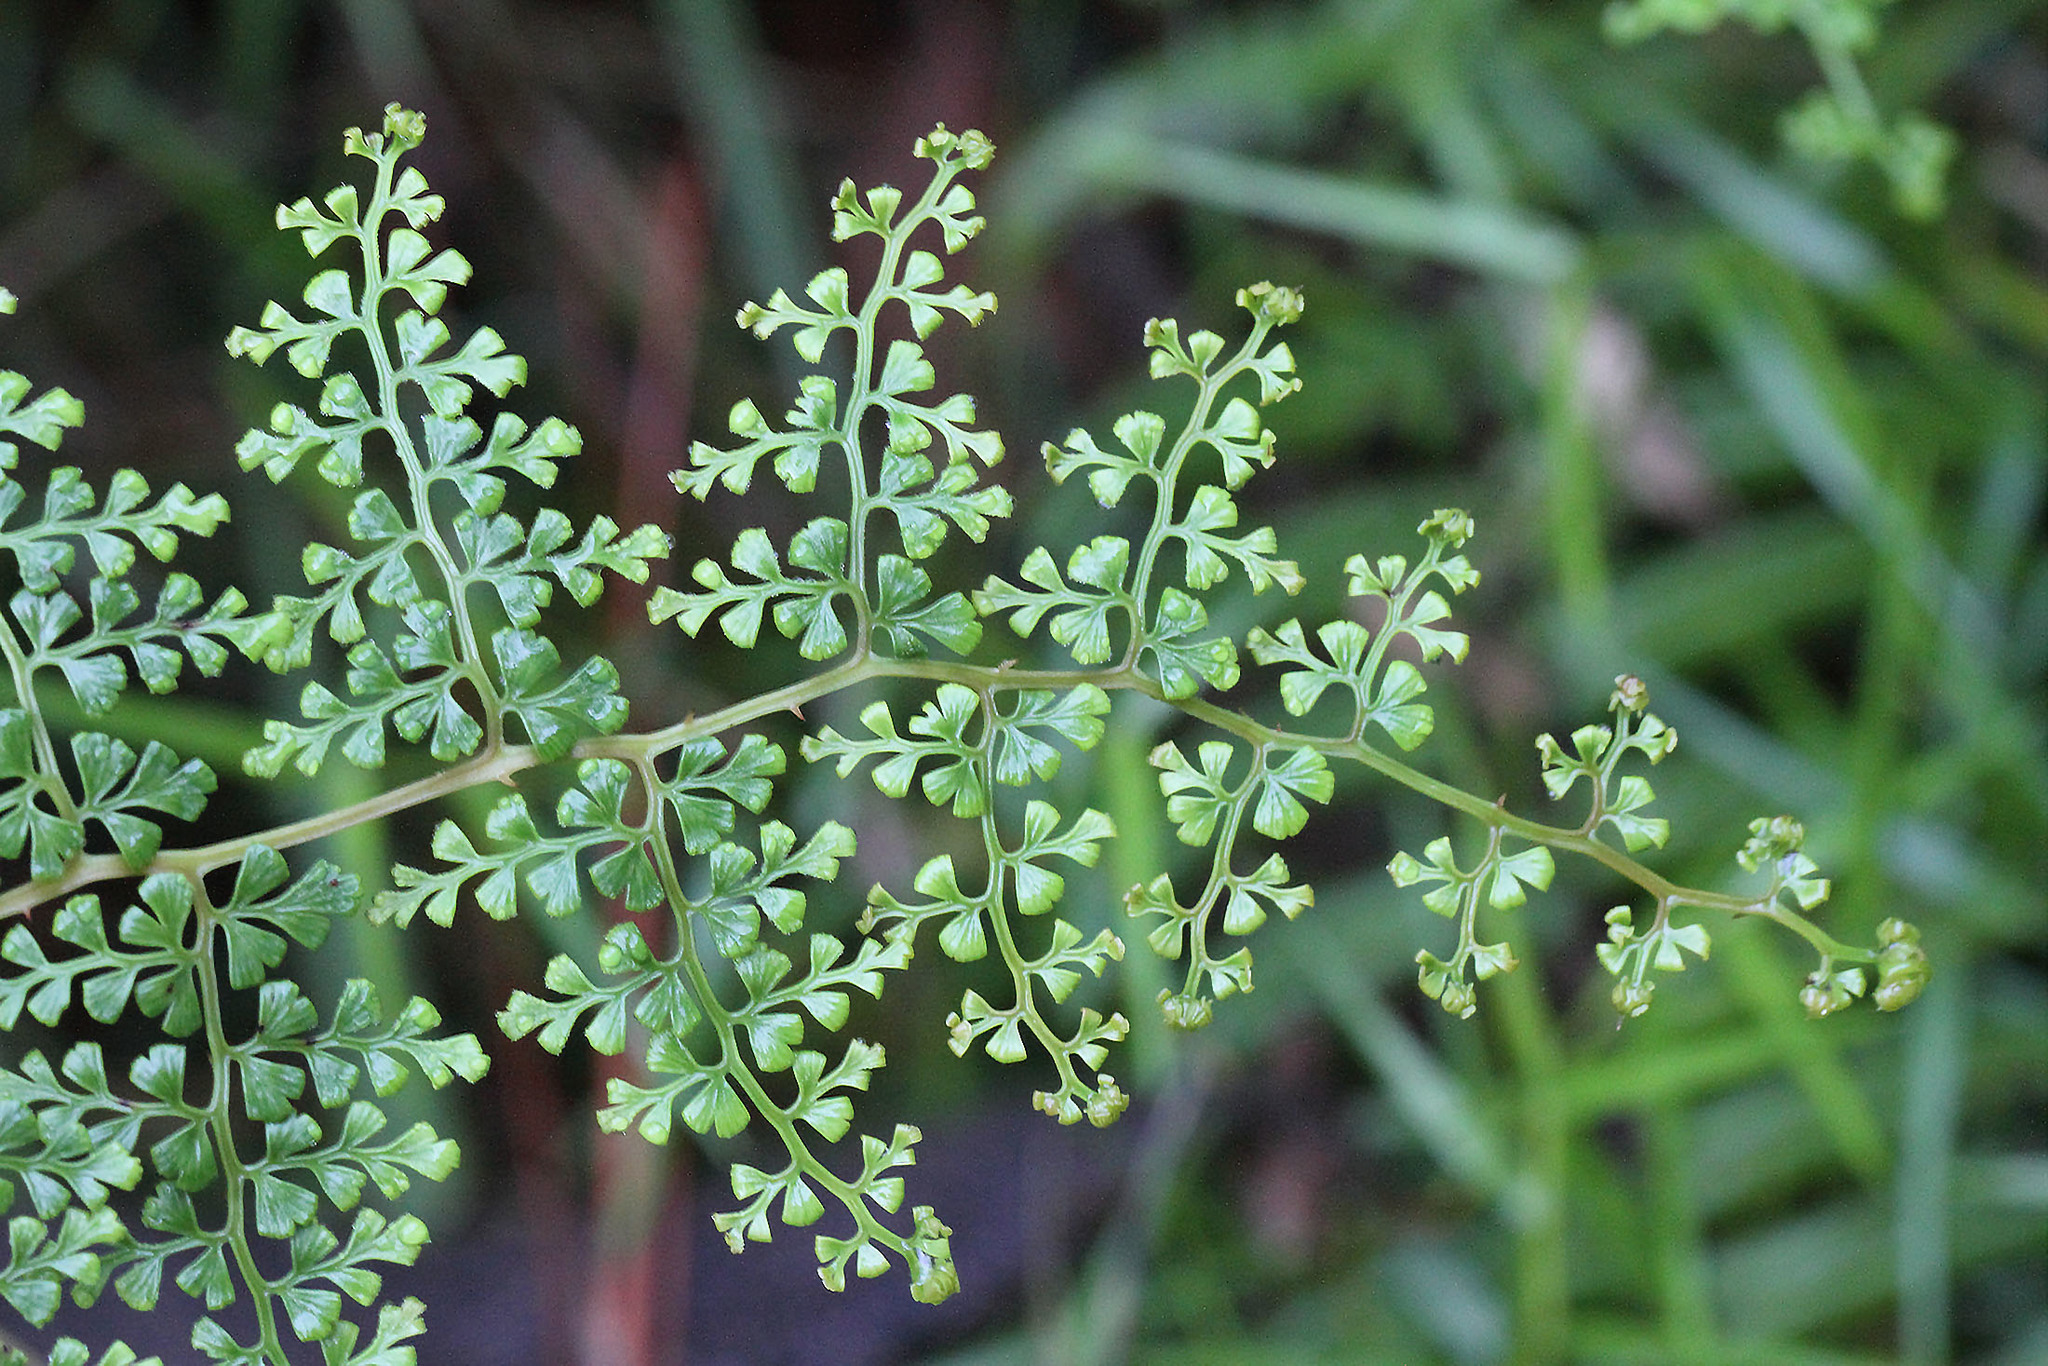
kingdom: Plantae
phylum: Tracheophyta
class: Polypodiopsida
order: Polypodiales
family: Lindsaeaceae
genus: Odontosoria
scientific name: Odontosoria aculeata
